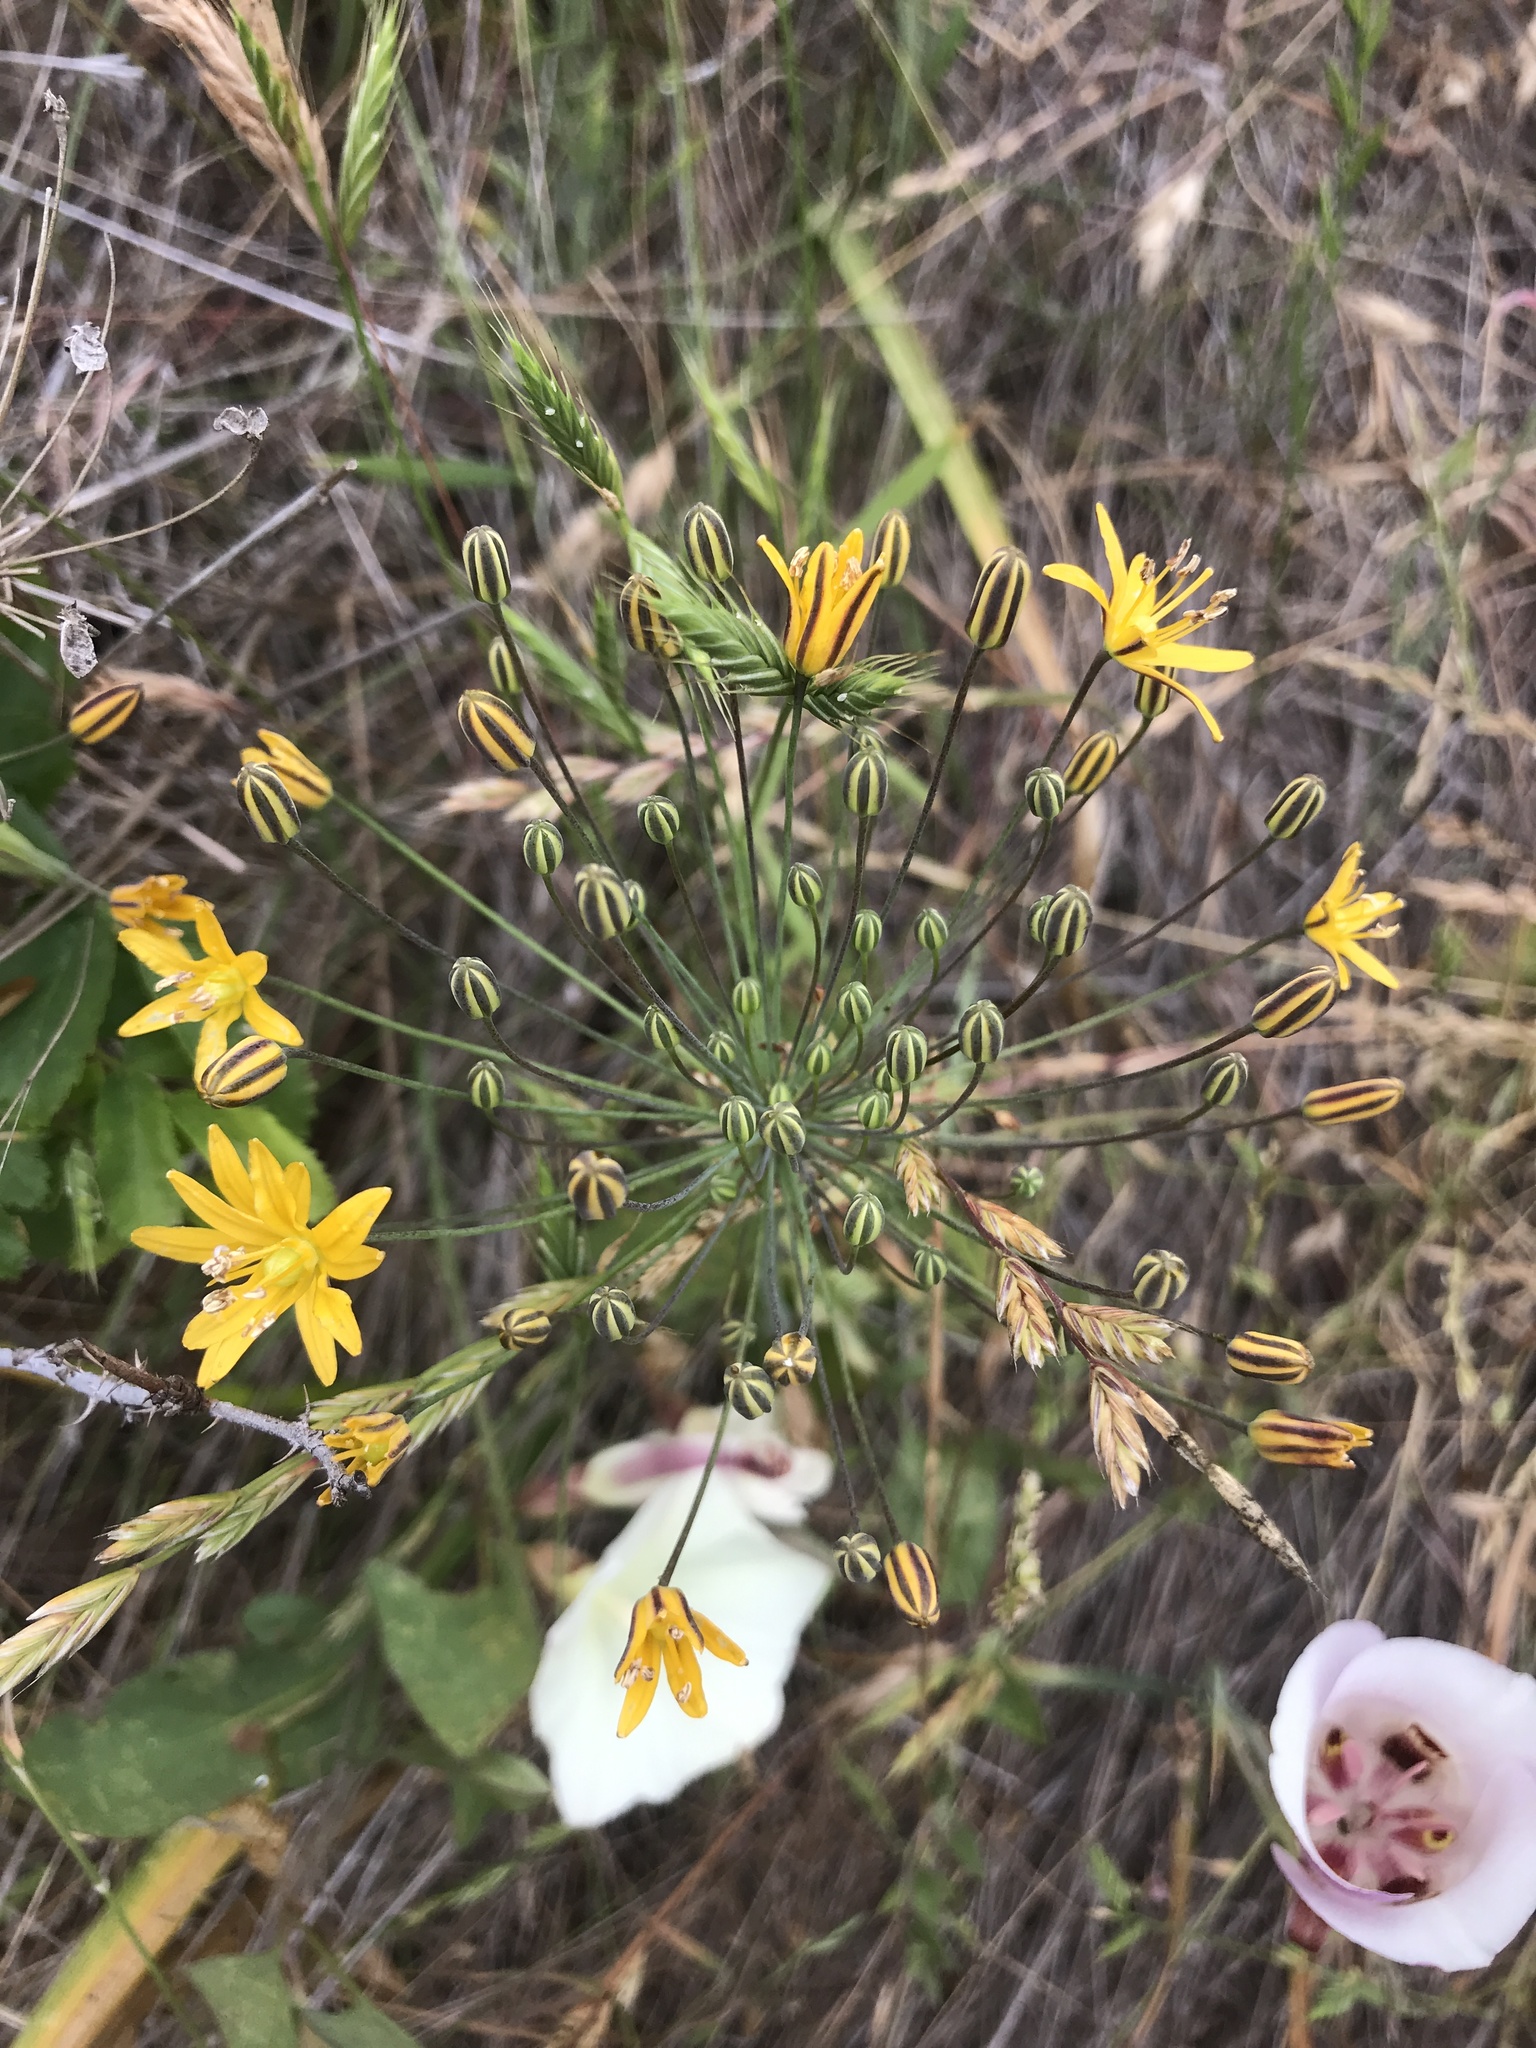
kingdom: Plantae
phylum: Tracheophyta
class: Liliopsida
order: Asparagales
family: Asparagaceae
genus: Bloomeria
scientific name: Bloomeria crocea
